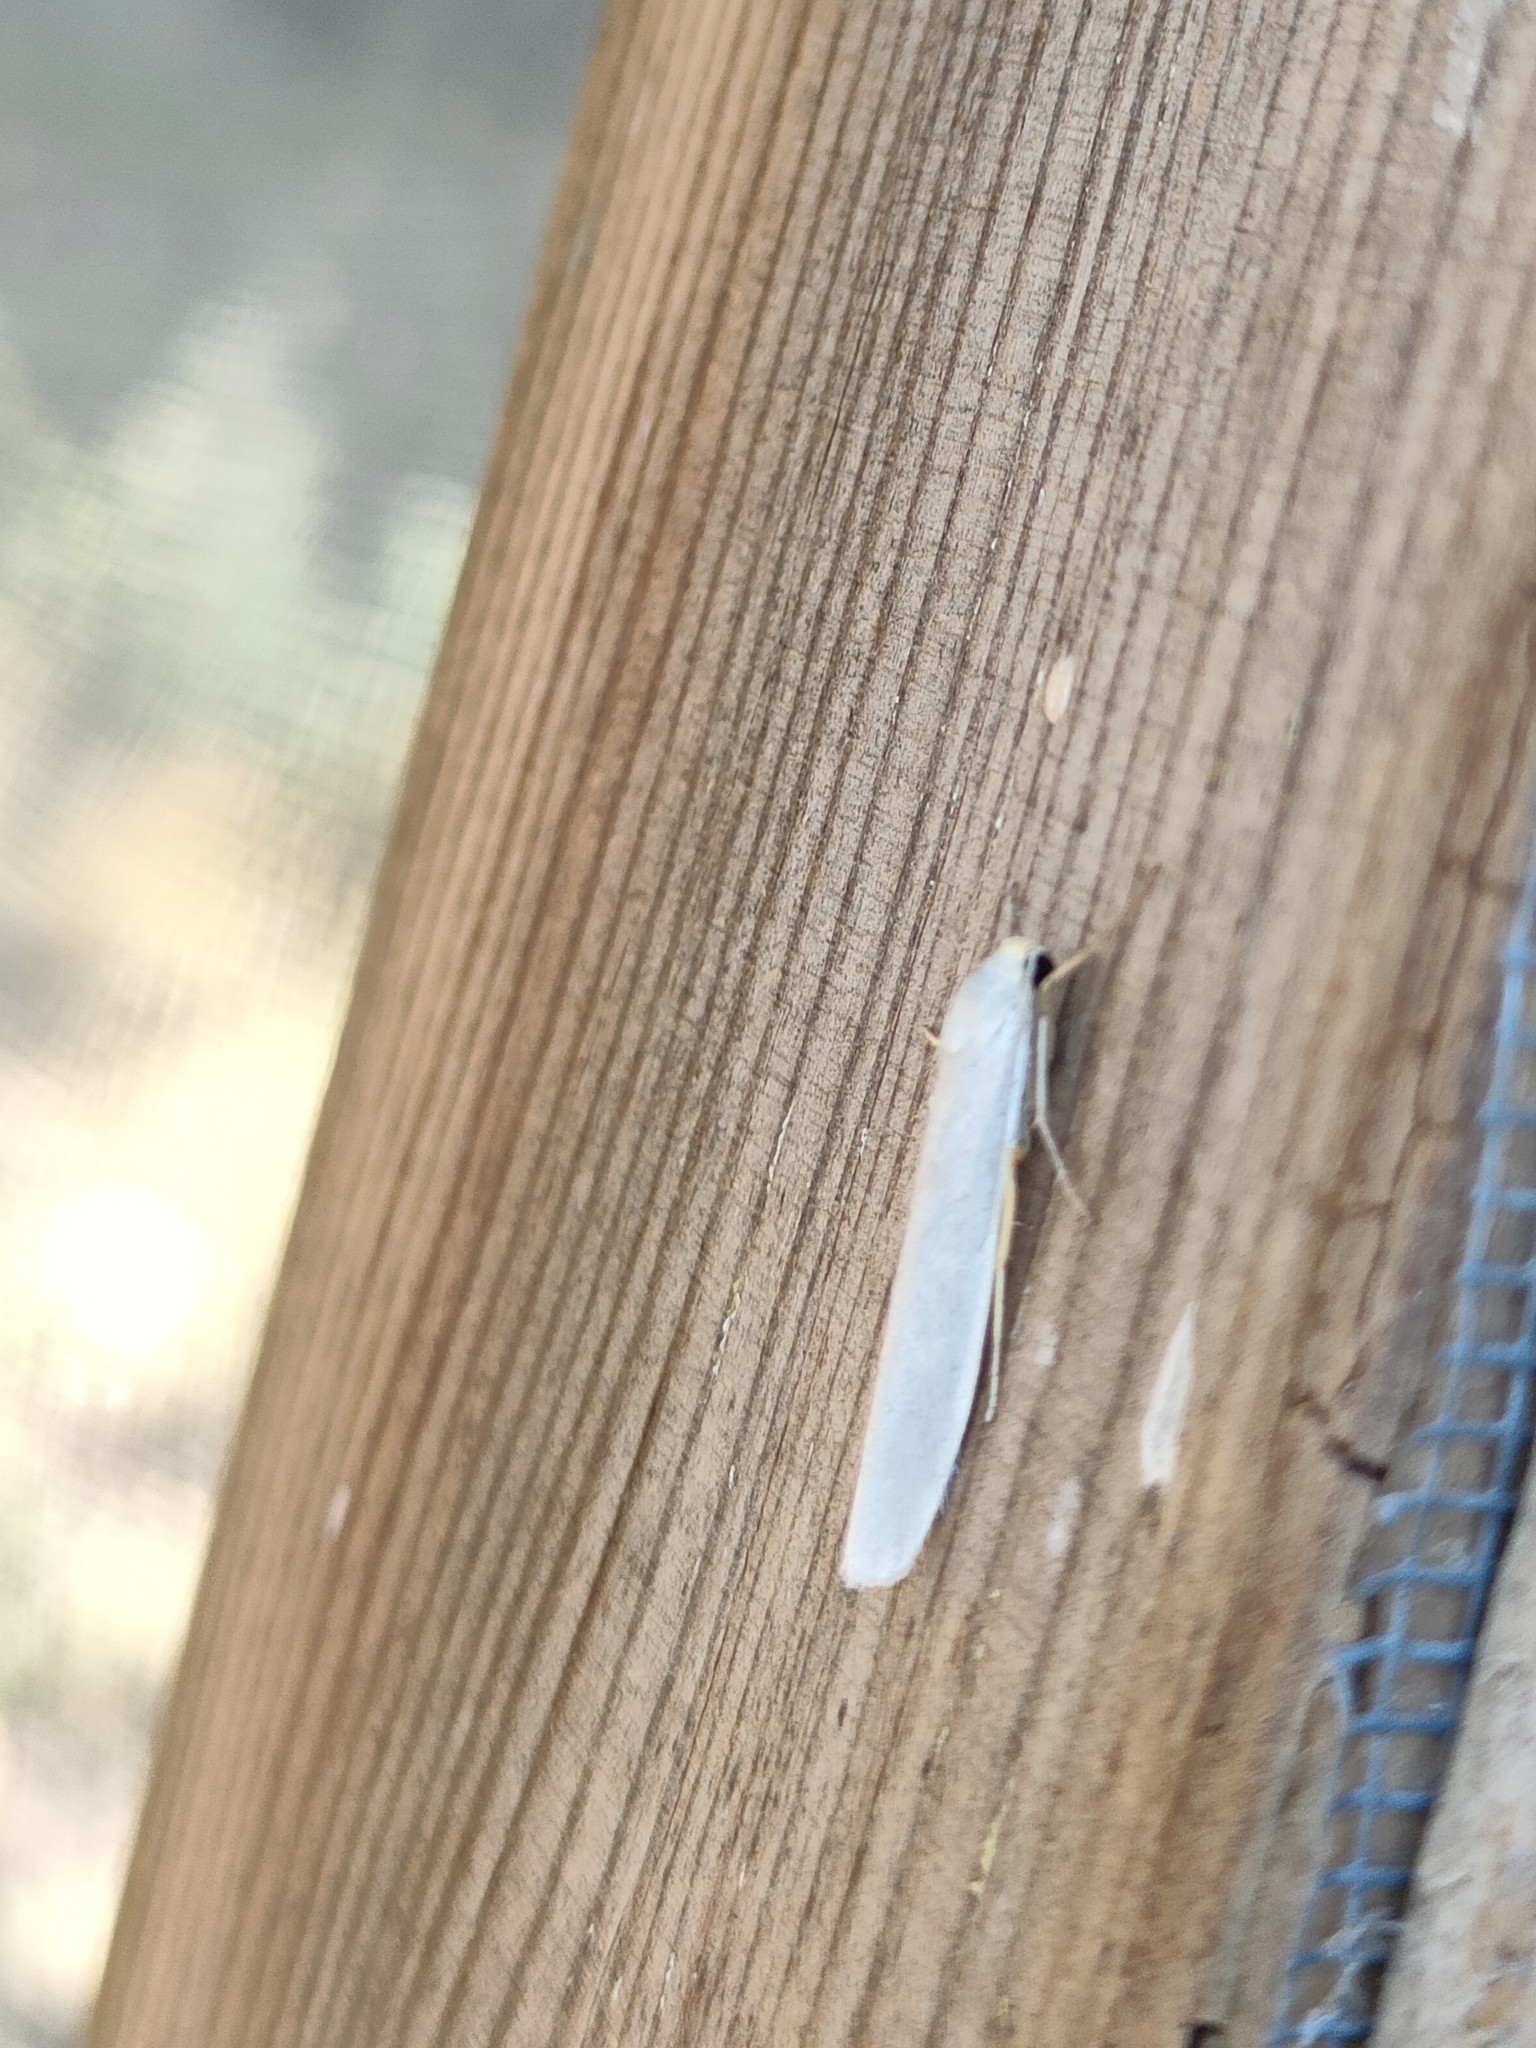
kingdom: Animalia
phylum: Arthropoda
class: Insecta
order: Lepidoptera
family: Erebidae
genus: Indalia
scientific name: Indalia uniola
